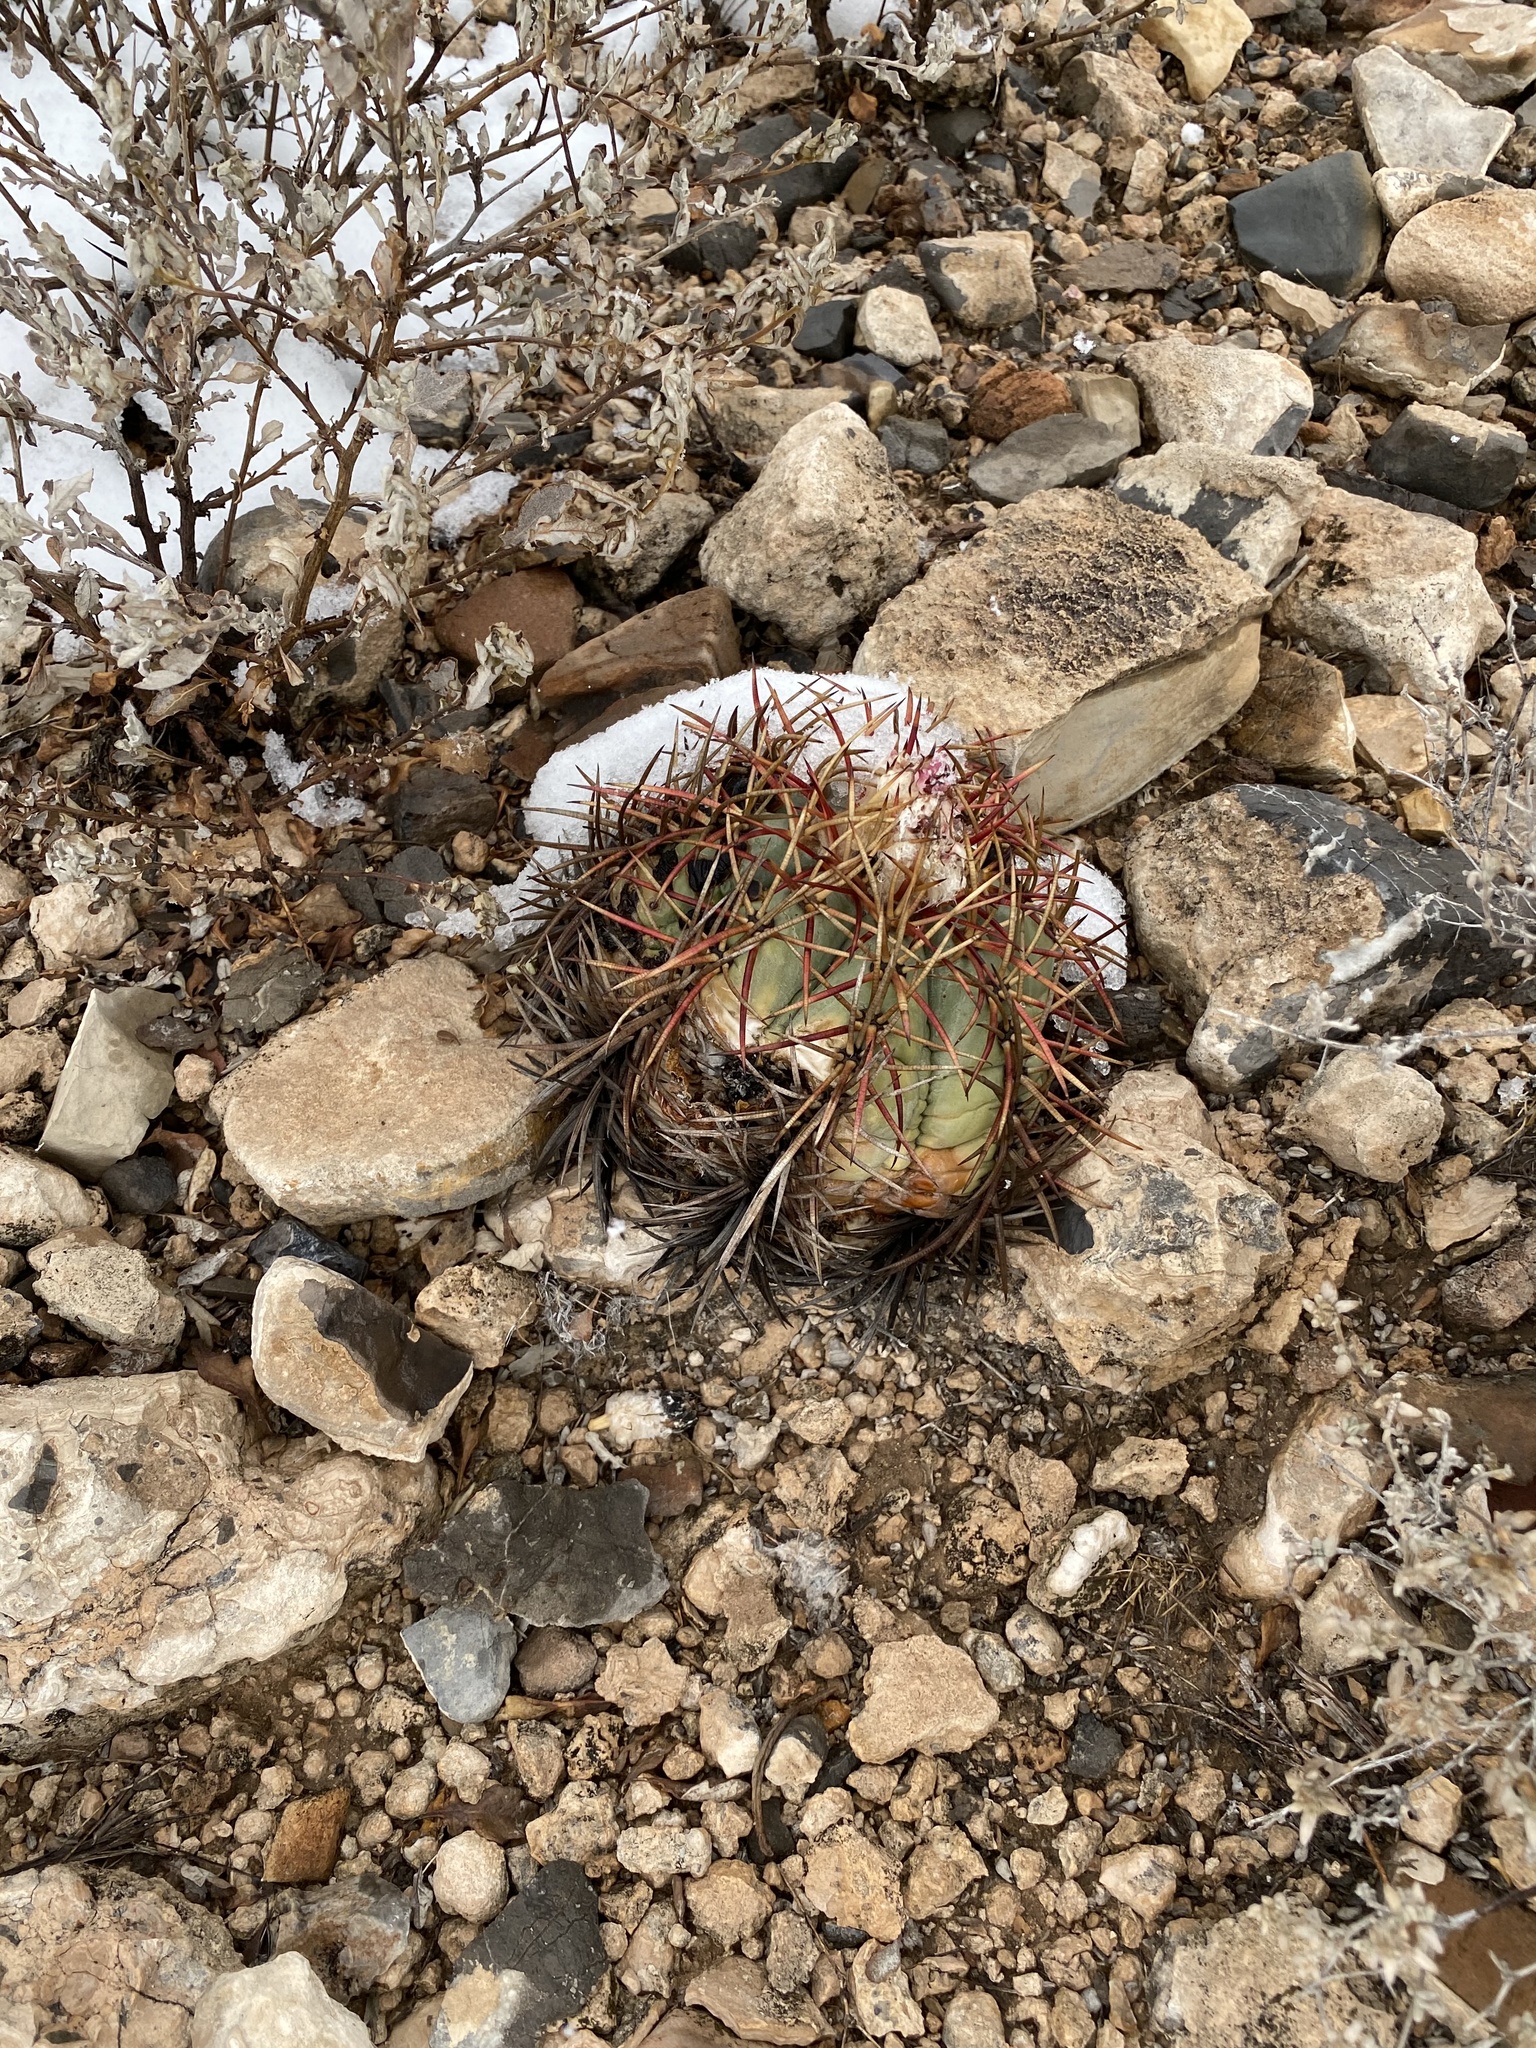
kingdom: Plantae
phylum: Tracheophyta
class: Magnoliopsida
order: Caryophyllales
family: Cactaceae
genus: Echinocactus
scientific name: Echinocactus horizonthalonius
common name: Devilshead
